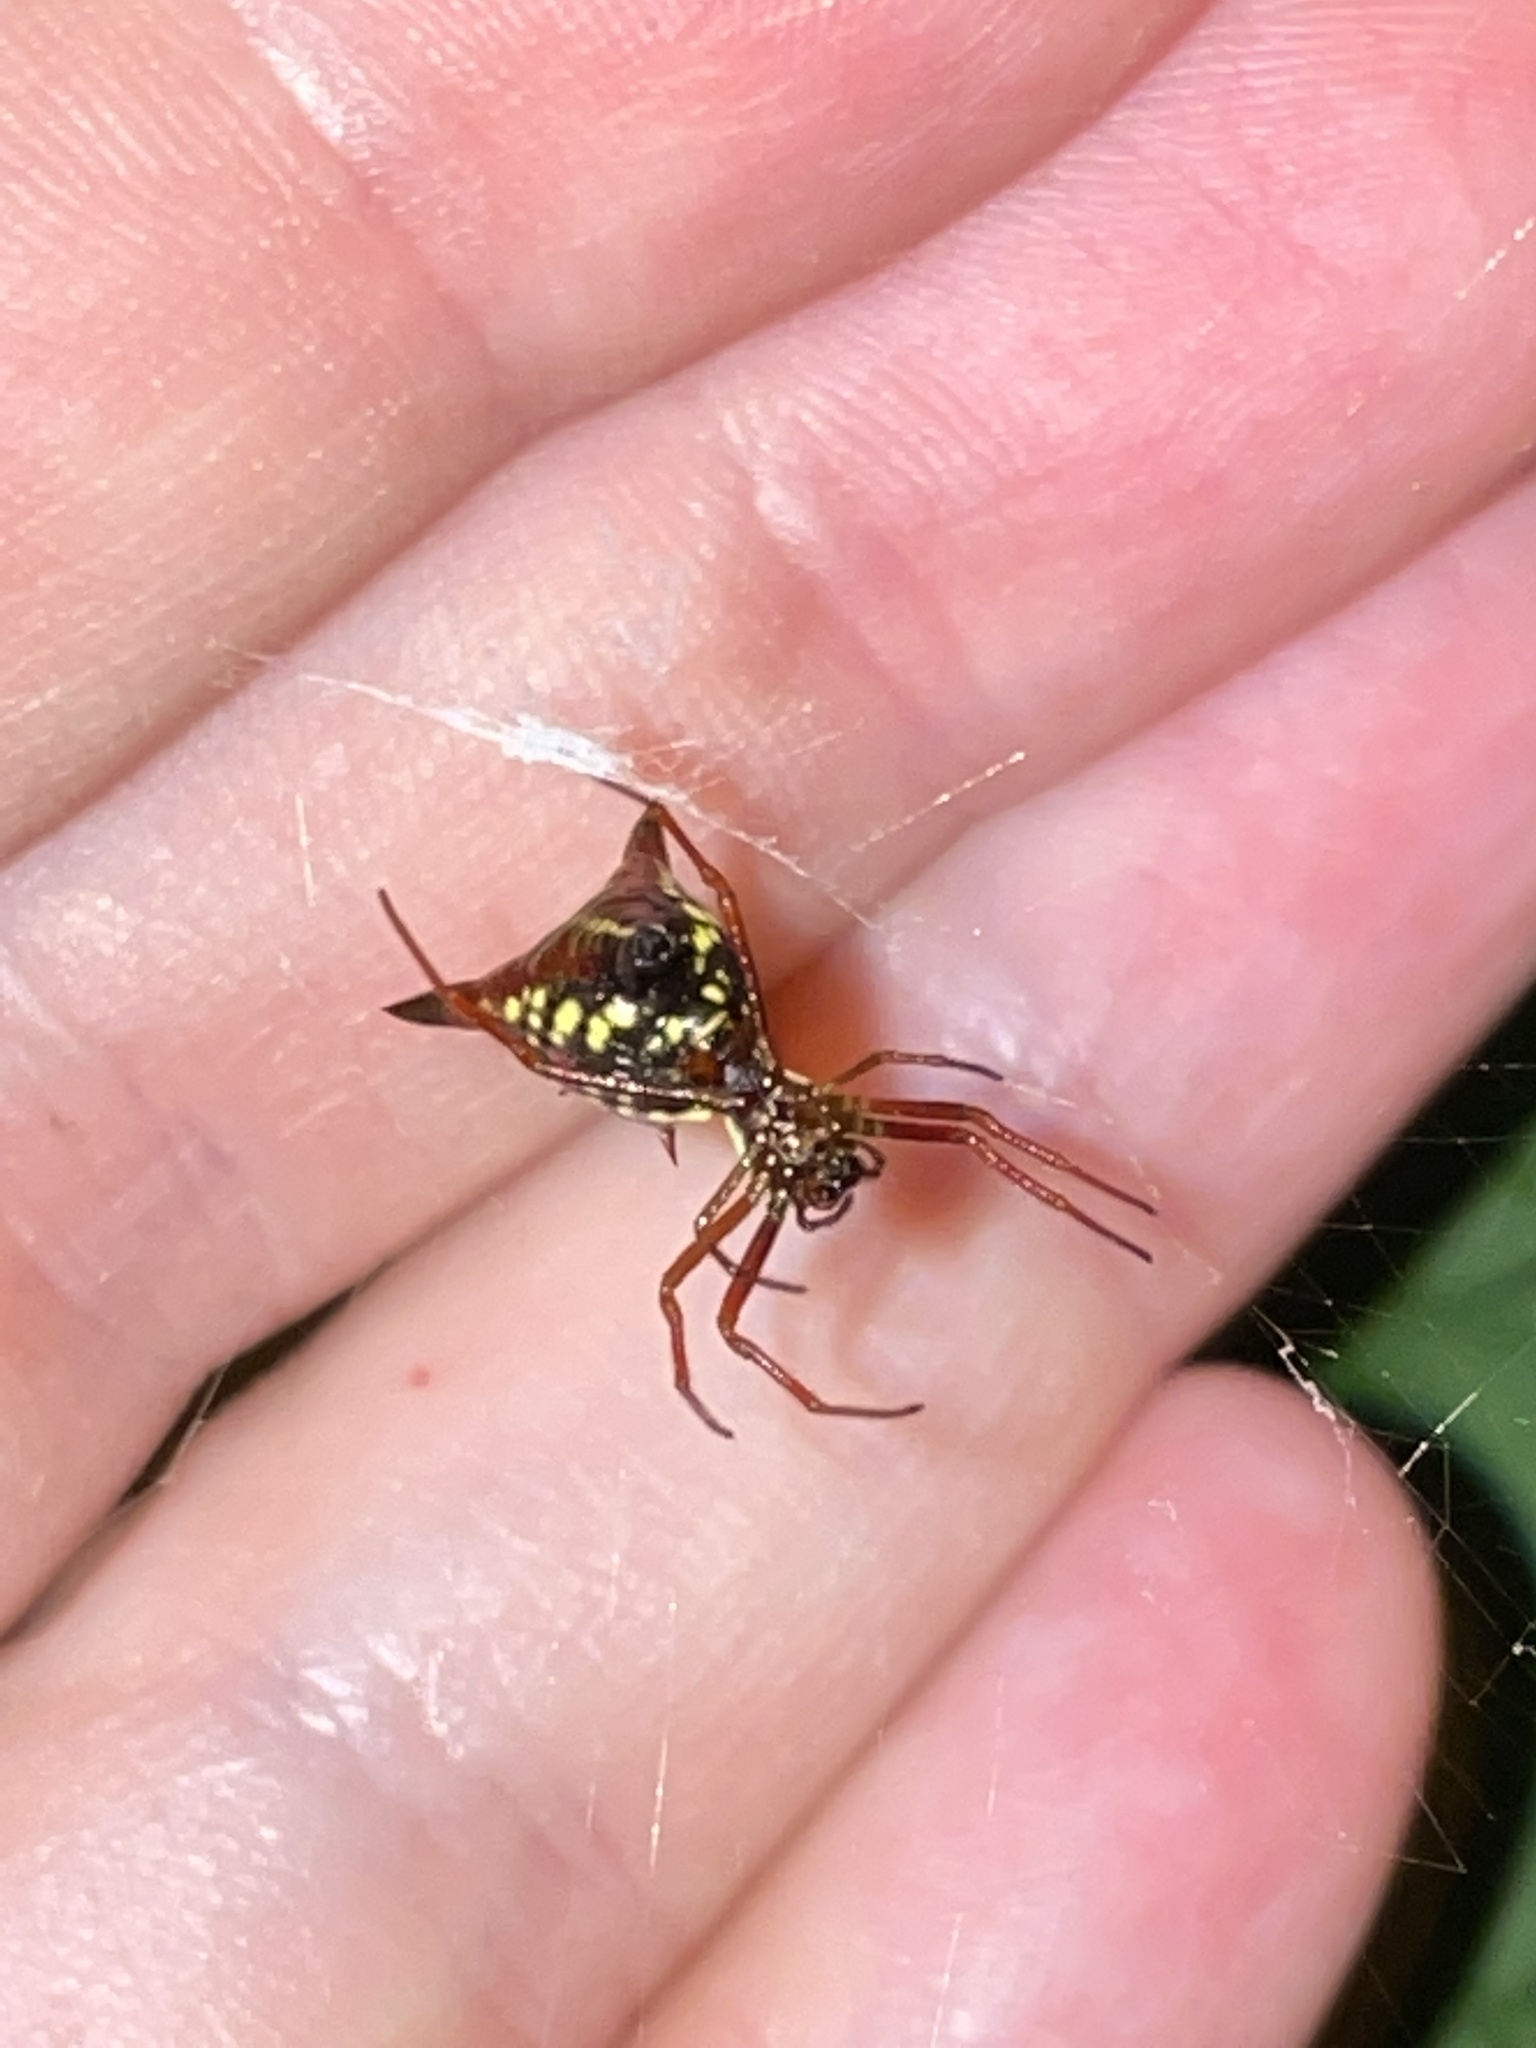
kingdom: Animalia
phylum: Arthropoda
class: Arachnida
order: Araneae
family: Araneidae
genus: Micrathena
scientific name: Micrathena sagittata
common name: Orb weavers
